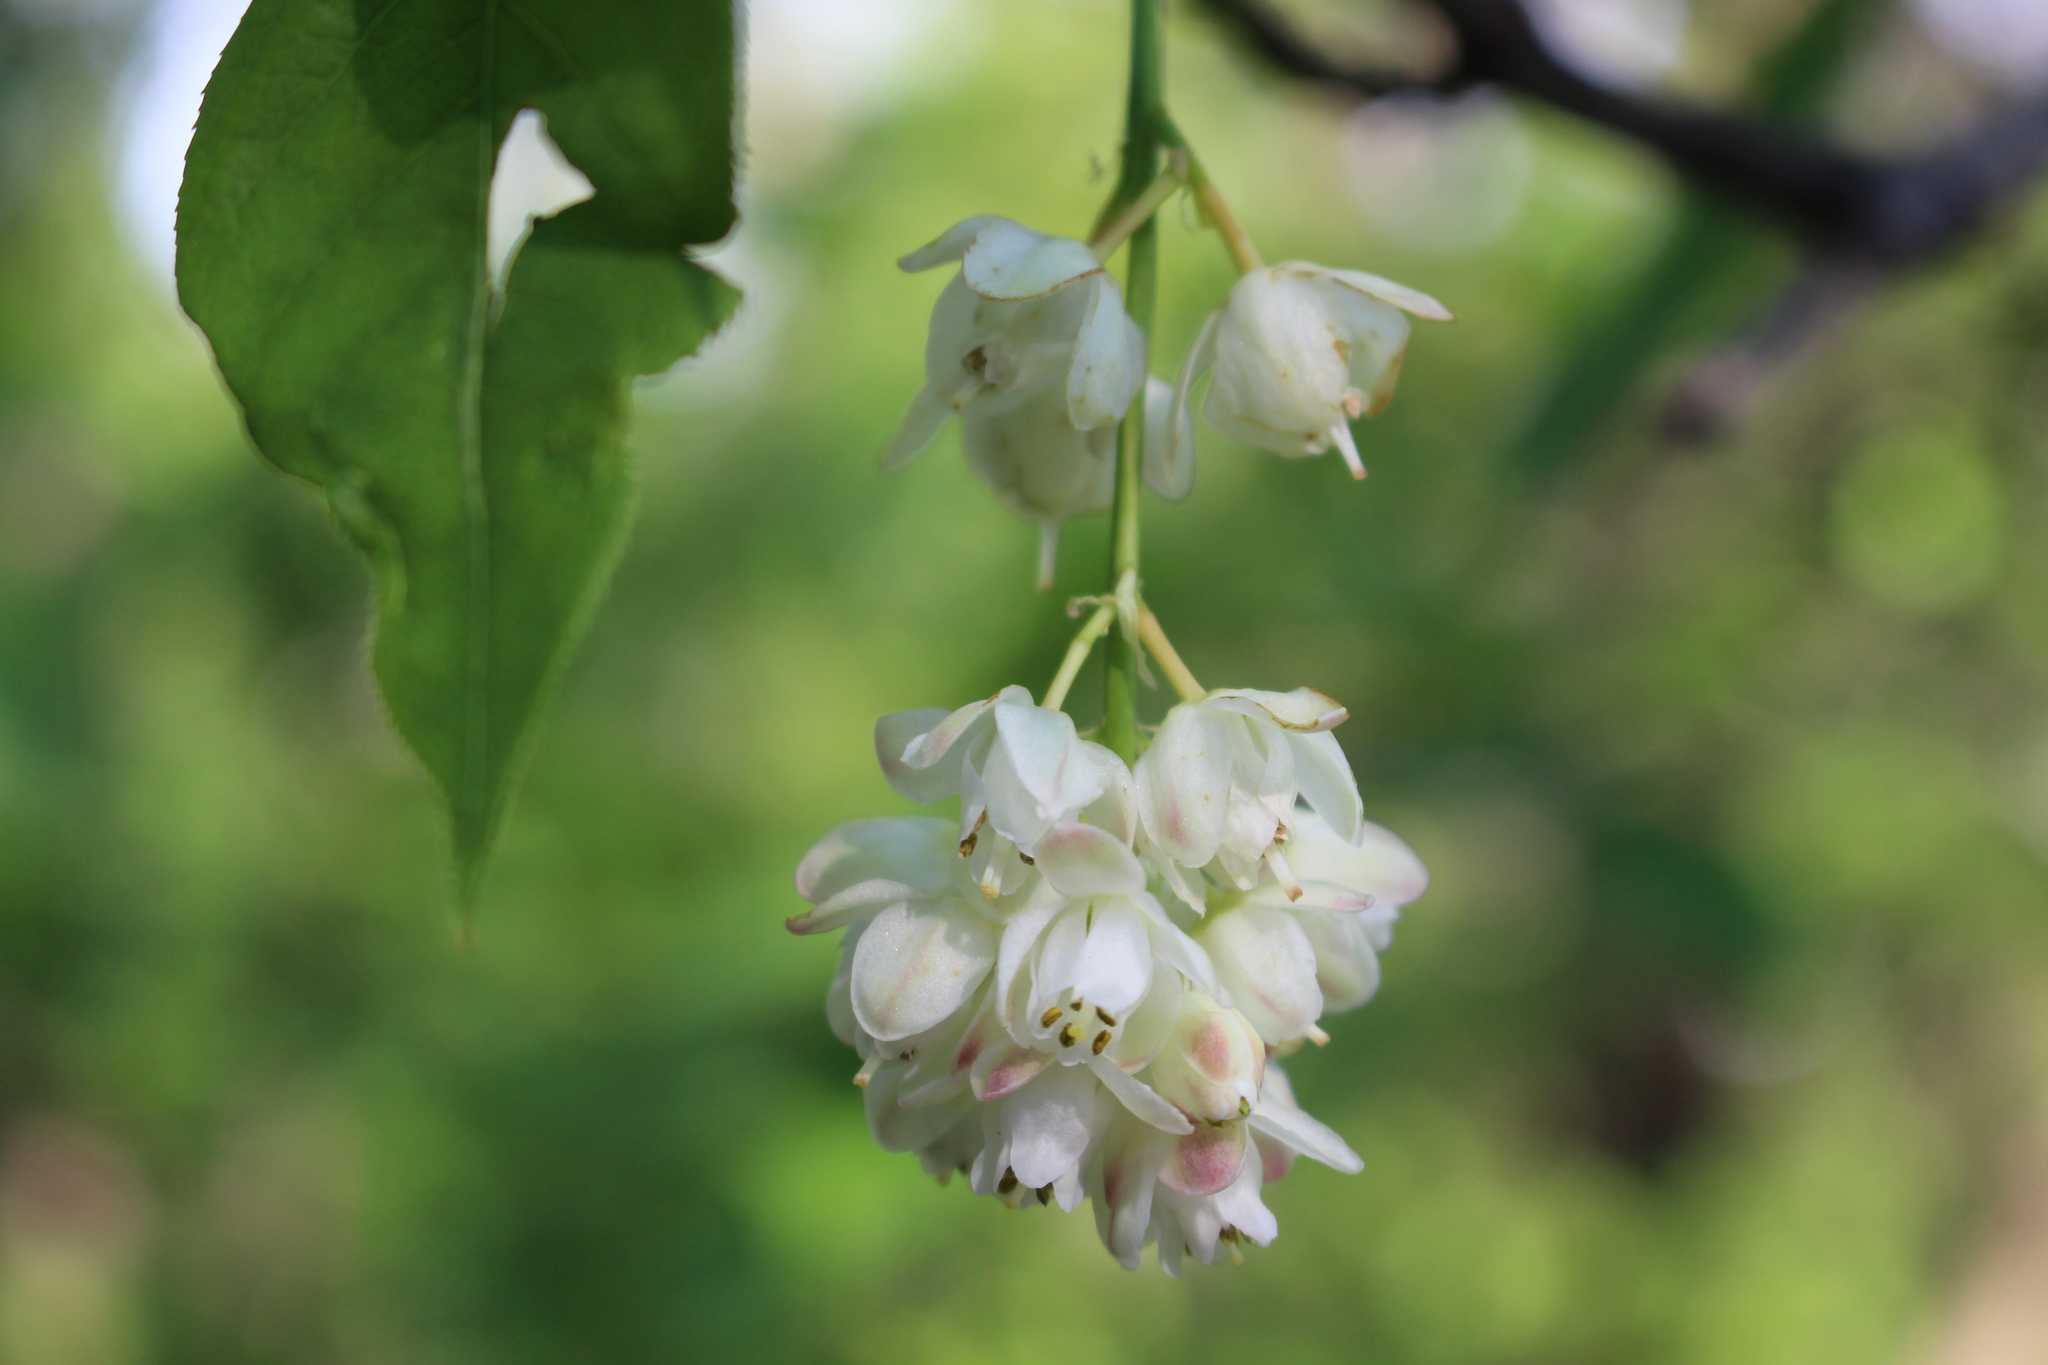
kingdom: Plantae
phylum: Tracheophyta
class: Magnoliopsida
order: Crossosomatales
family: Staphyleaceae
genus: Staphylea
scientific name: Staphylea pinnata
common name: Bladdernut
